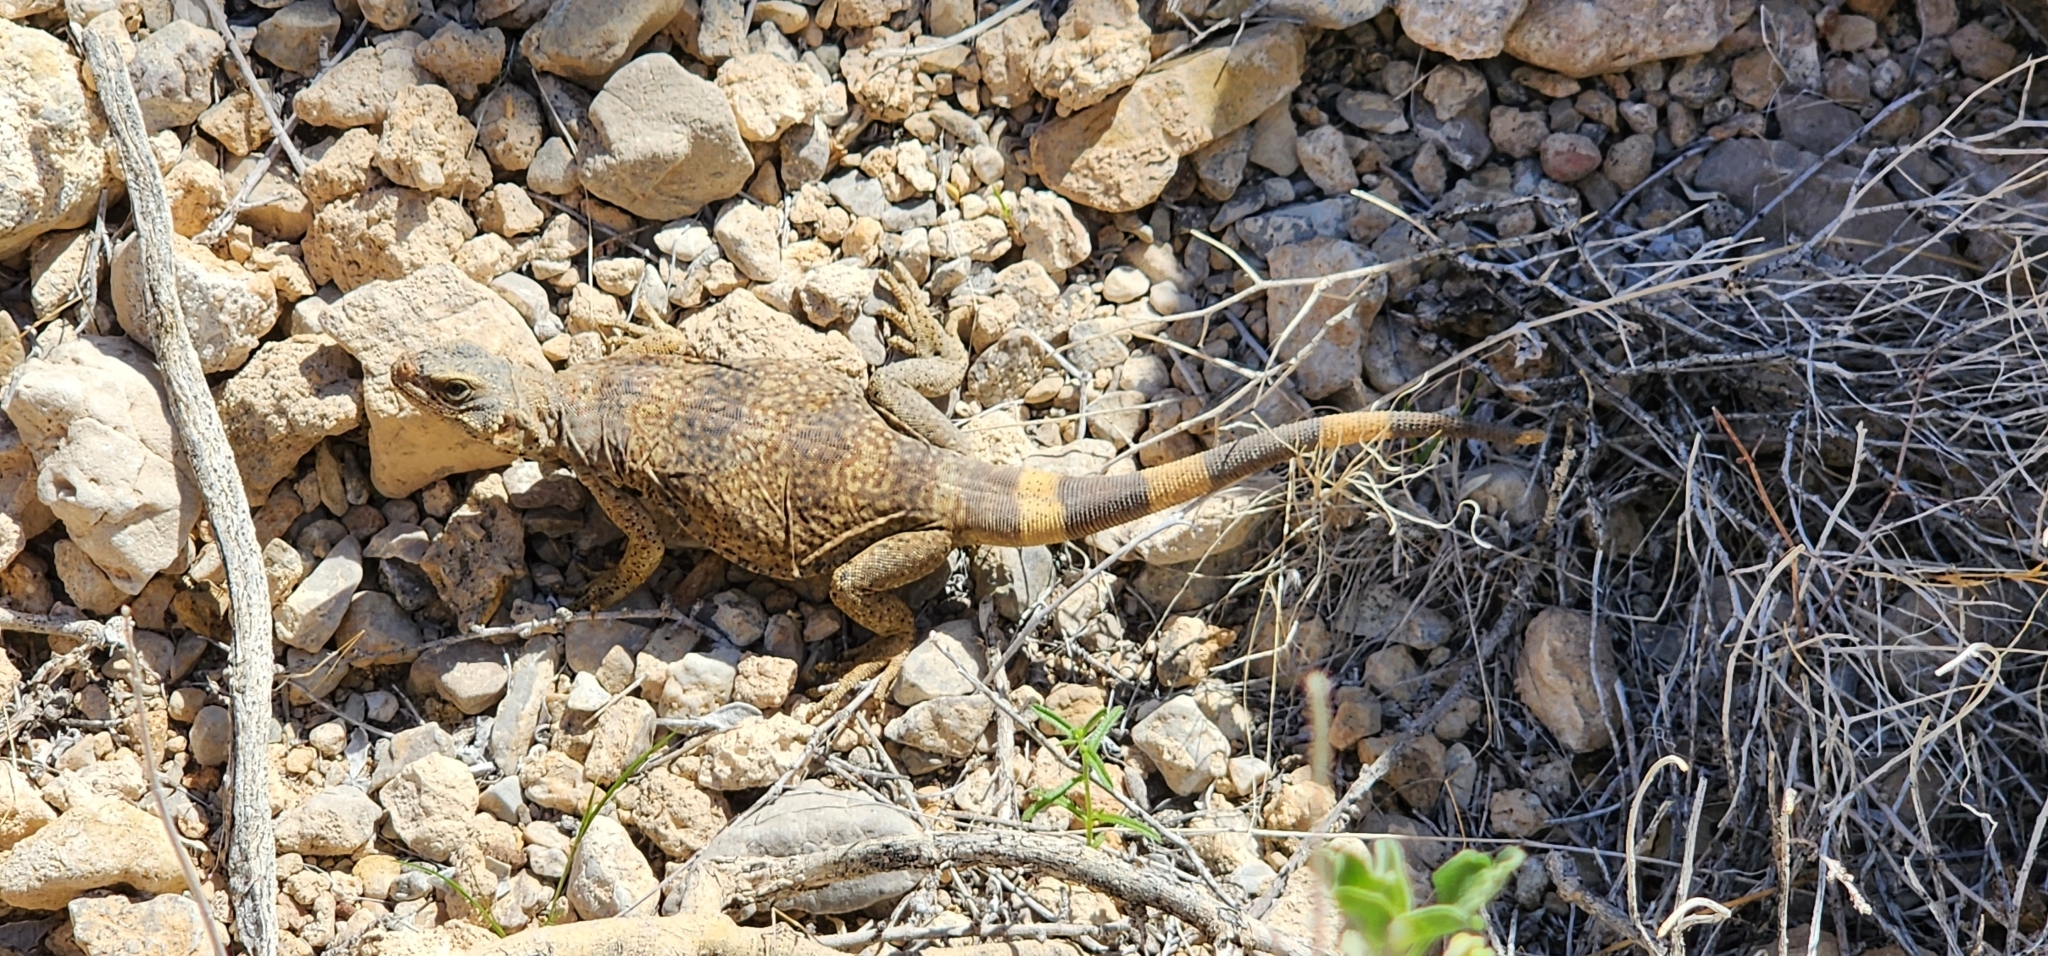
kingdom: Animalia
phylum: Chordata
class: Squamata
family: Iguanidae
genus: Sauromalus
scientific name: Sauromalus ater
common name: Northern chuckwalla
